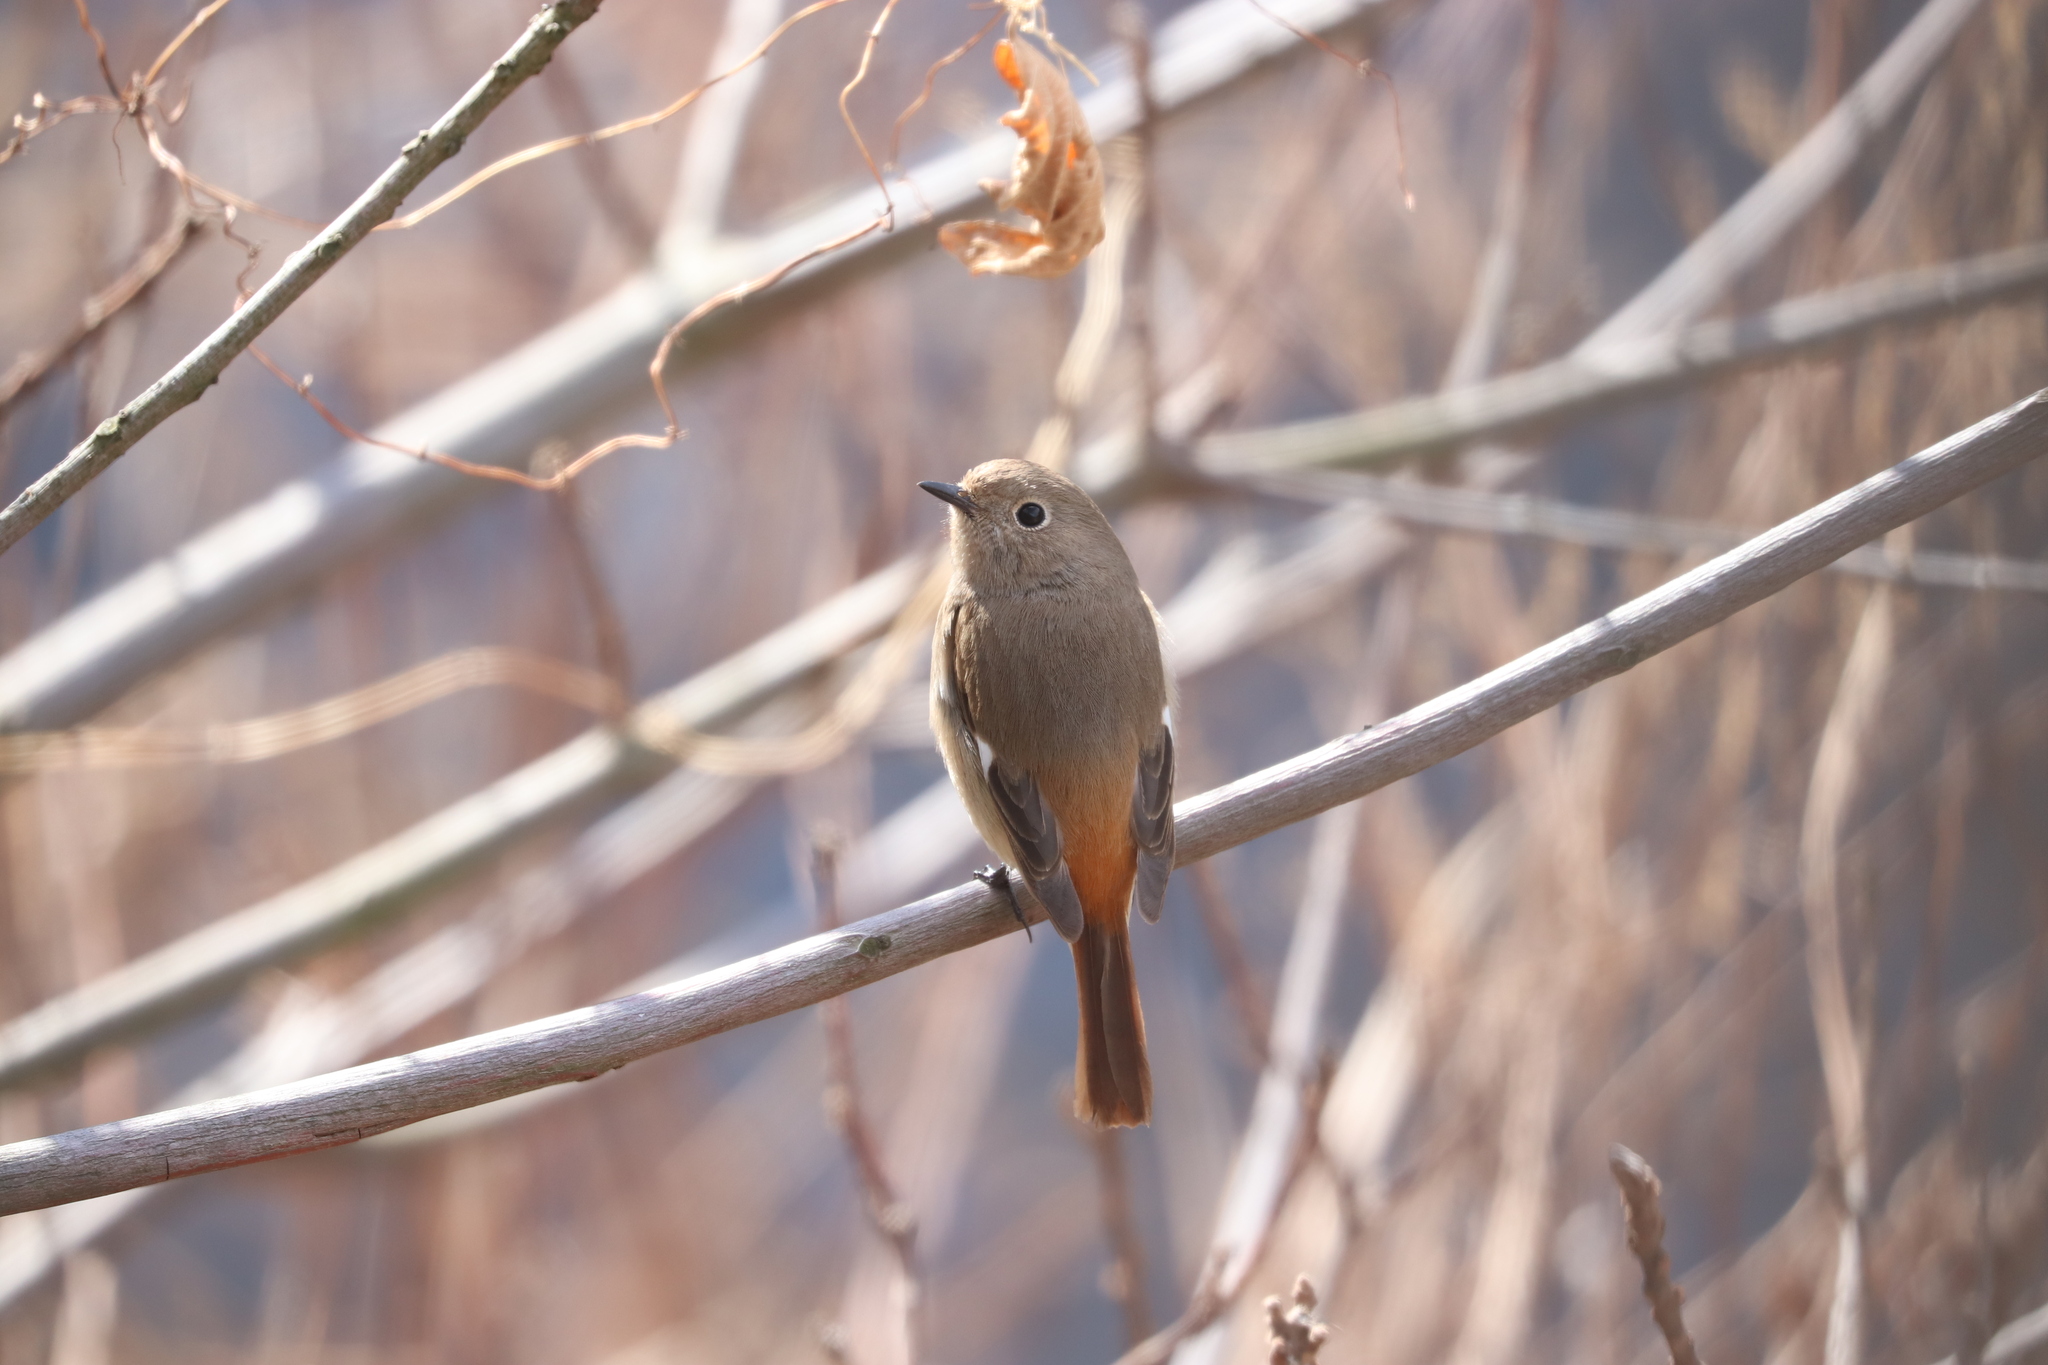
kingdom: Animalia
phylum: Chordata
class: Aves
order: Passeriformes
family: Muscicapidae
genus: Phoenicurus
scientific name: Phoenicurus auroreus
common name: Daurian redstart
